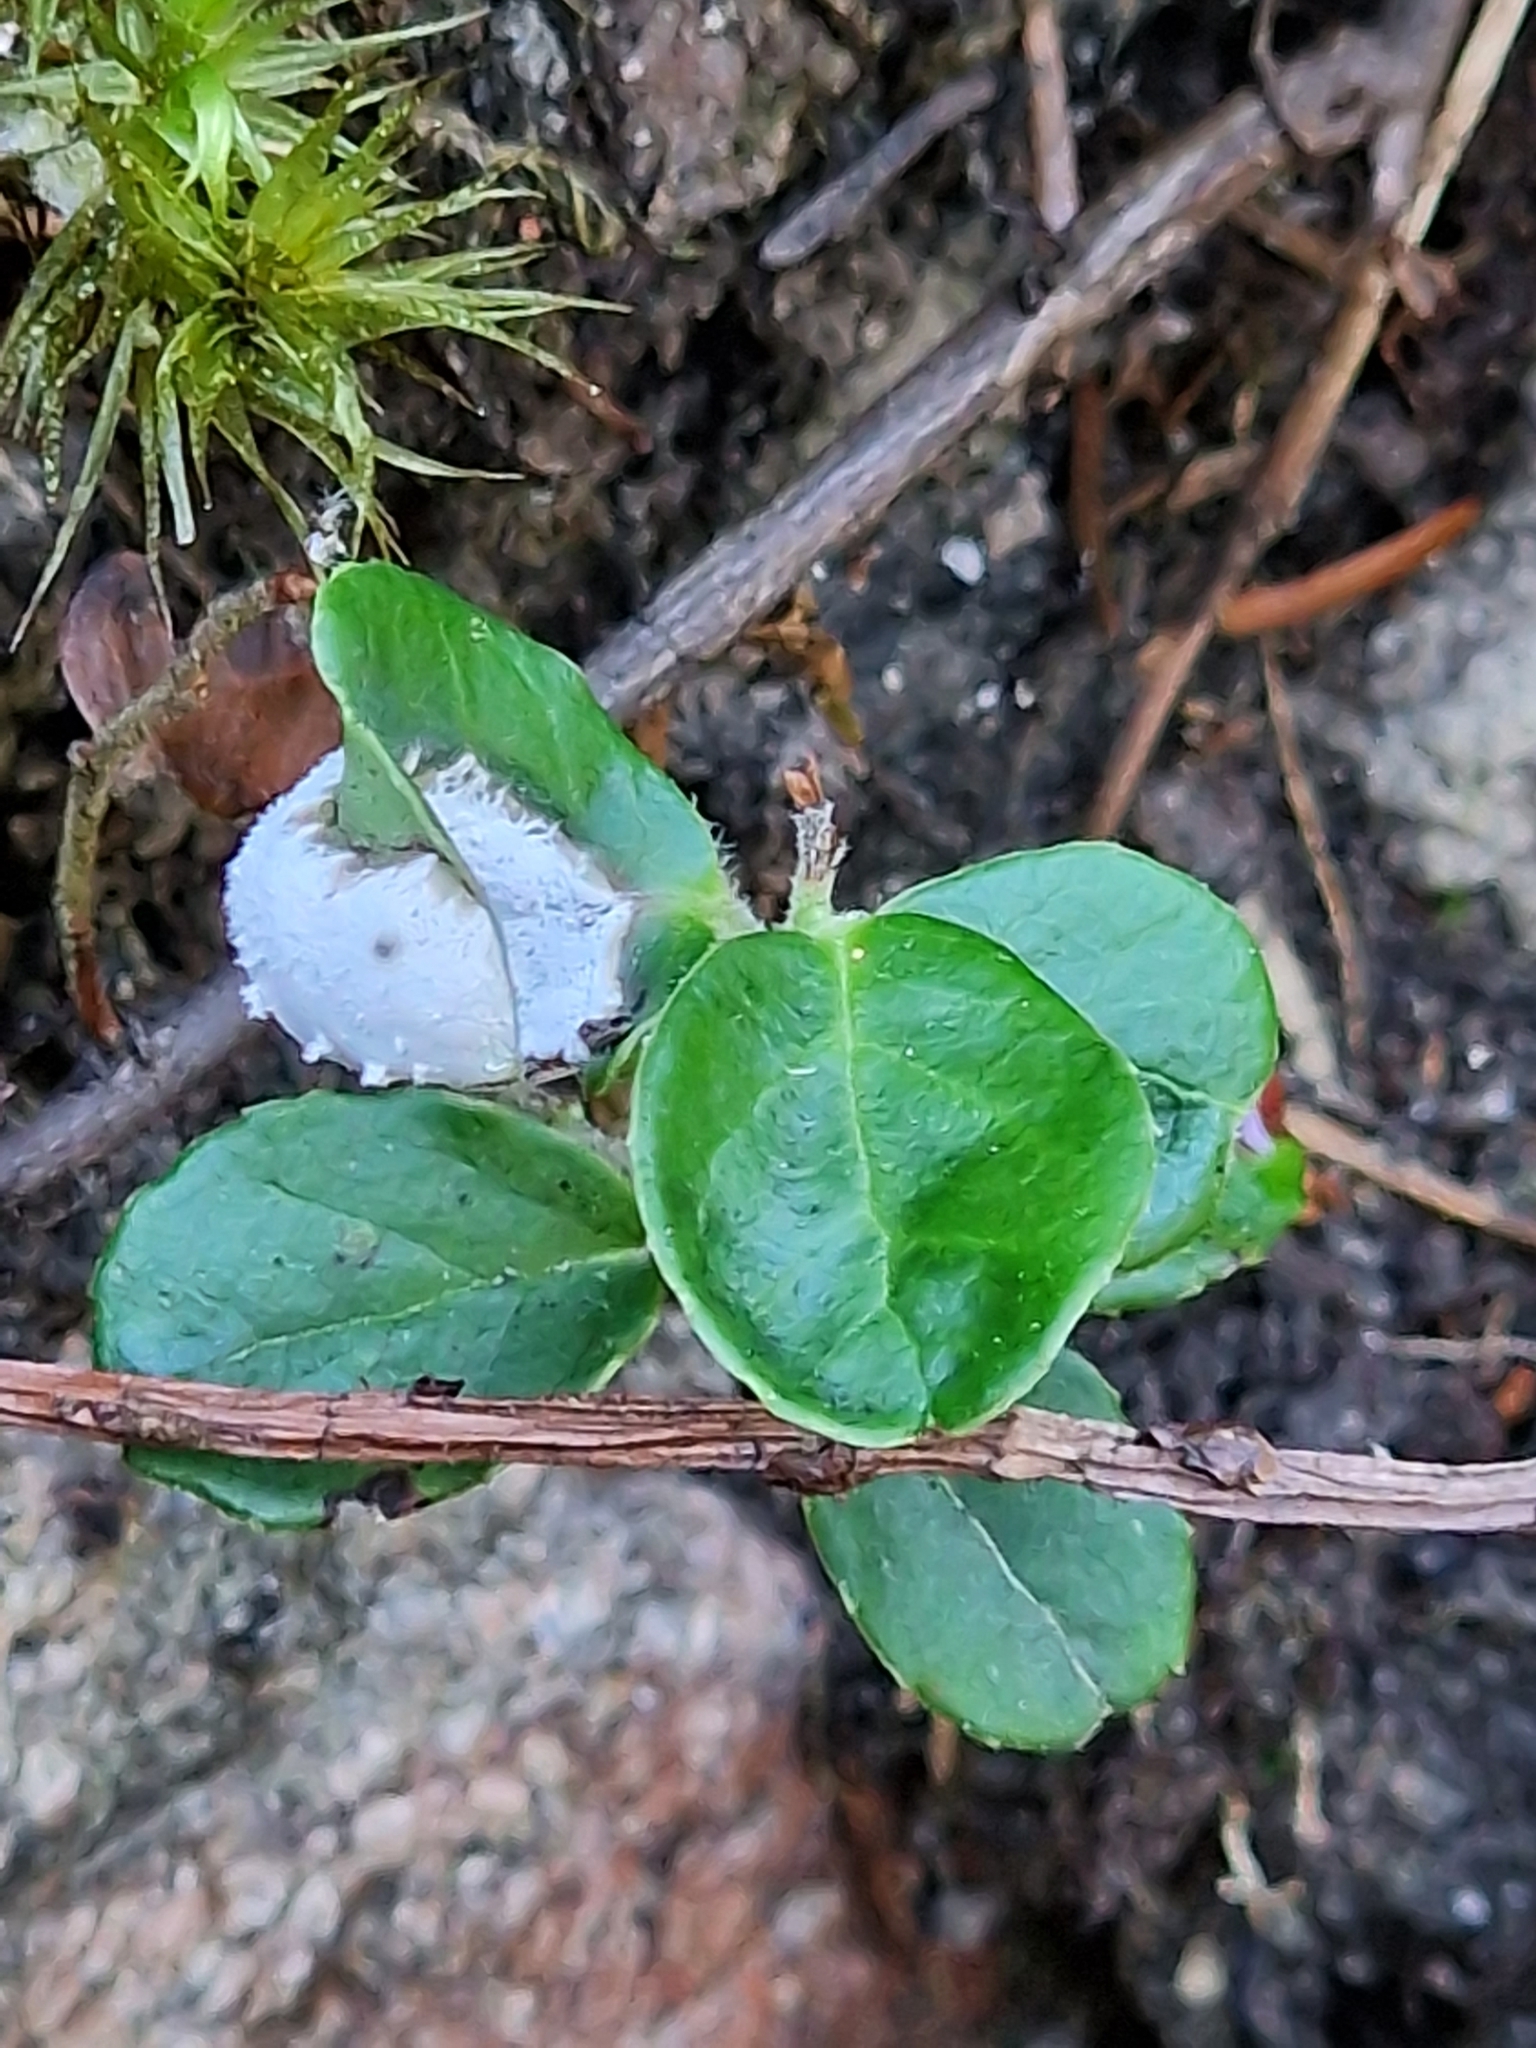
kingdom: Fungi
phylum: Basidiomycota
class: Exobasidiomycetes
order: Exobasidiales
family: Exobasidiaceae
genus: Exobasidium
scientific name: Exobasidium vaccinii
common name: Cowberry redleaf
